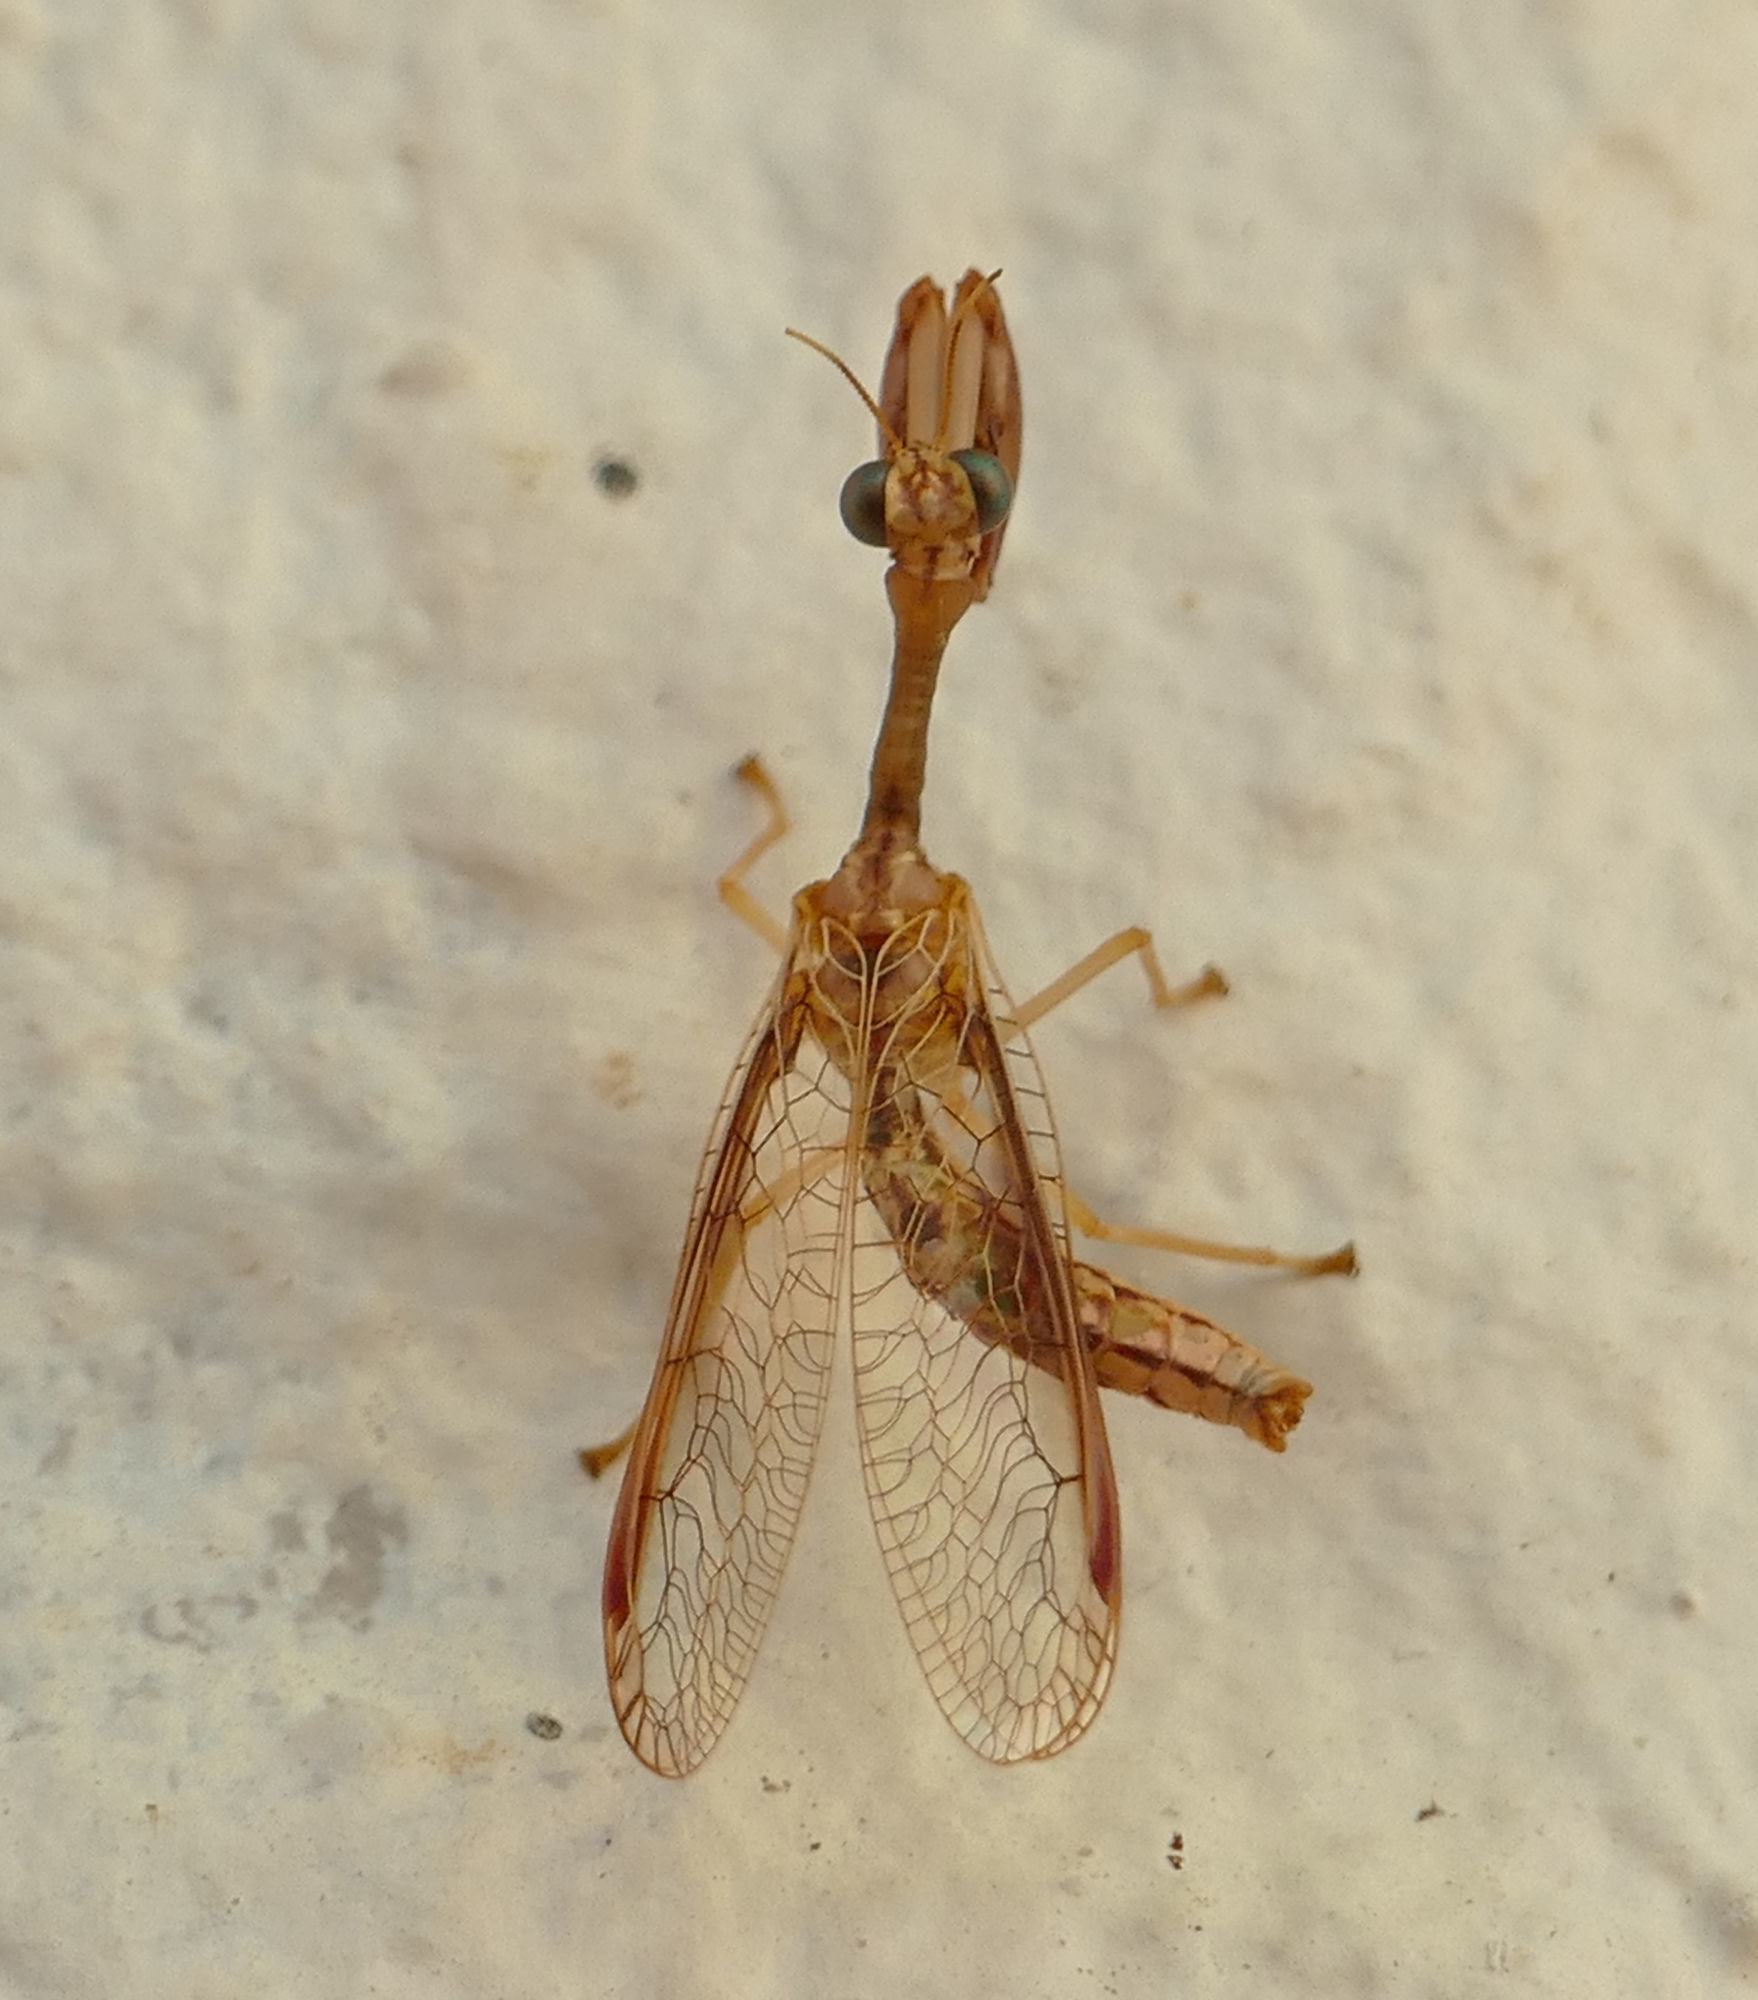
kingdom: Animalia
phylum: Arthropoda
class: Insecta
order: Neuroptera
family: Mantispidae
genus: Dicromantispa
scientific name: Dicromantispa sayi
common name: Say's mantidfly
